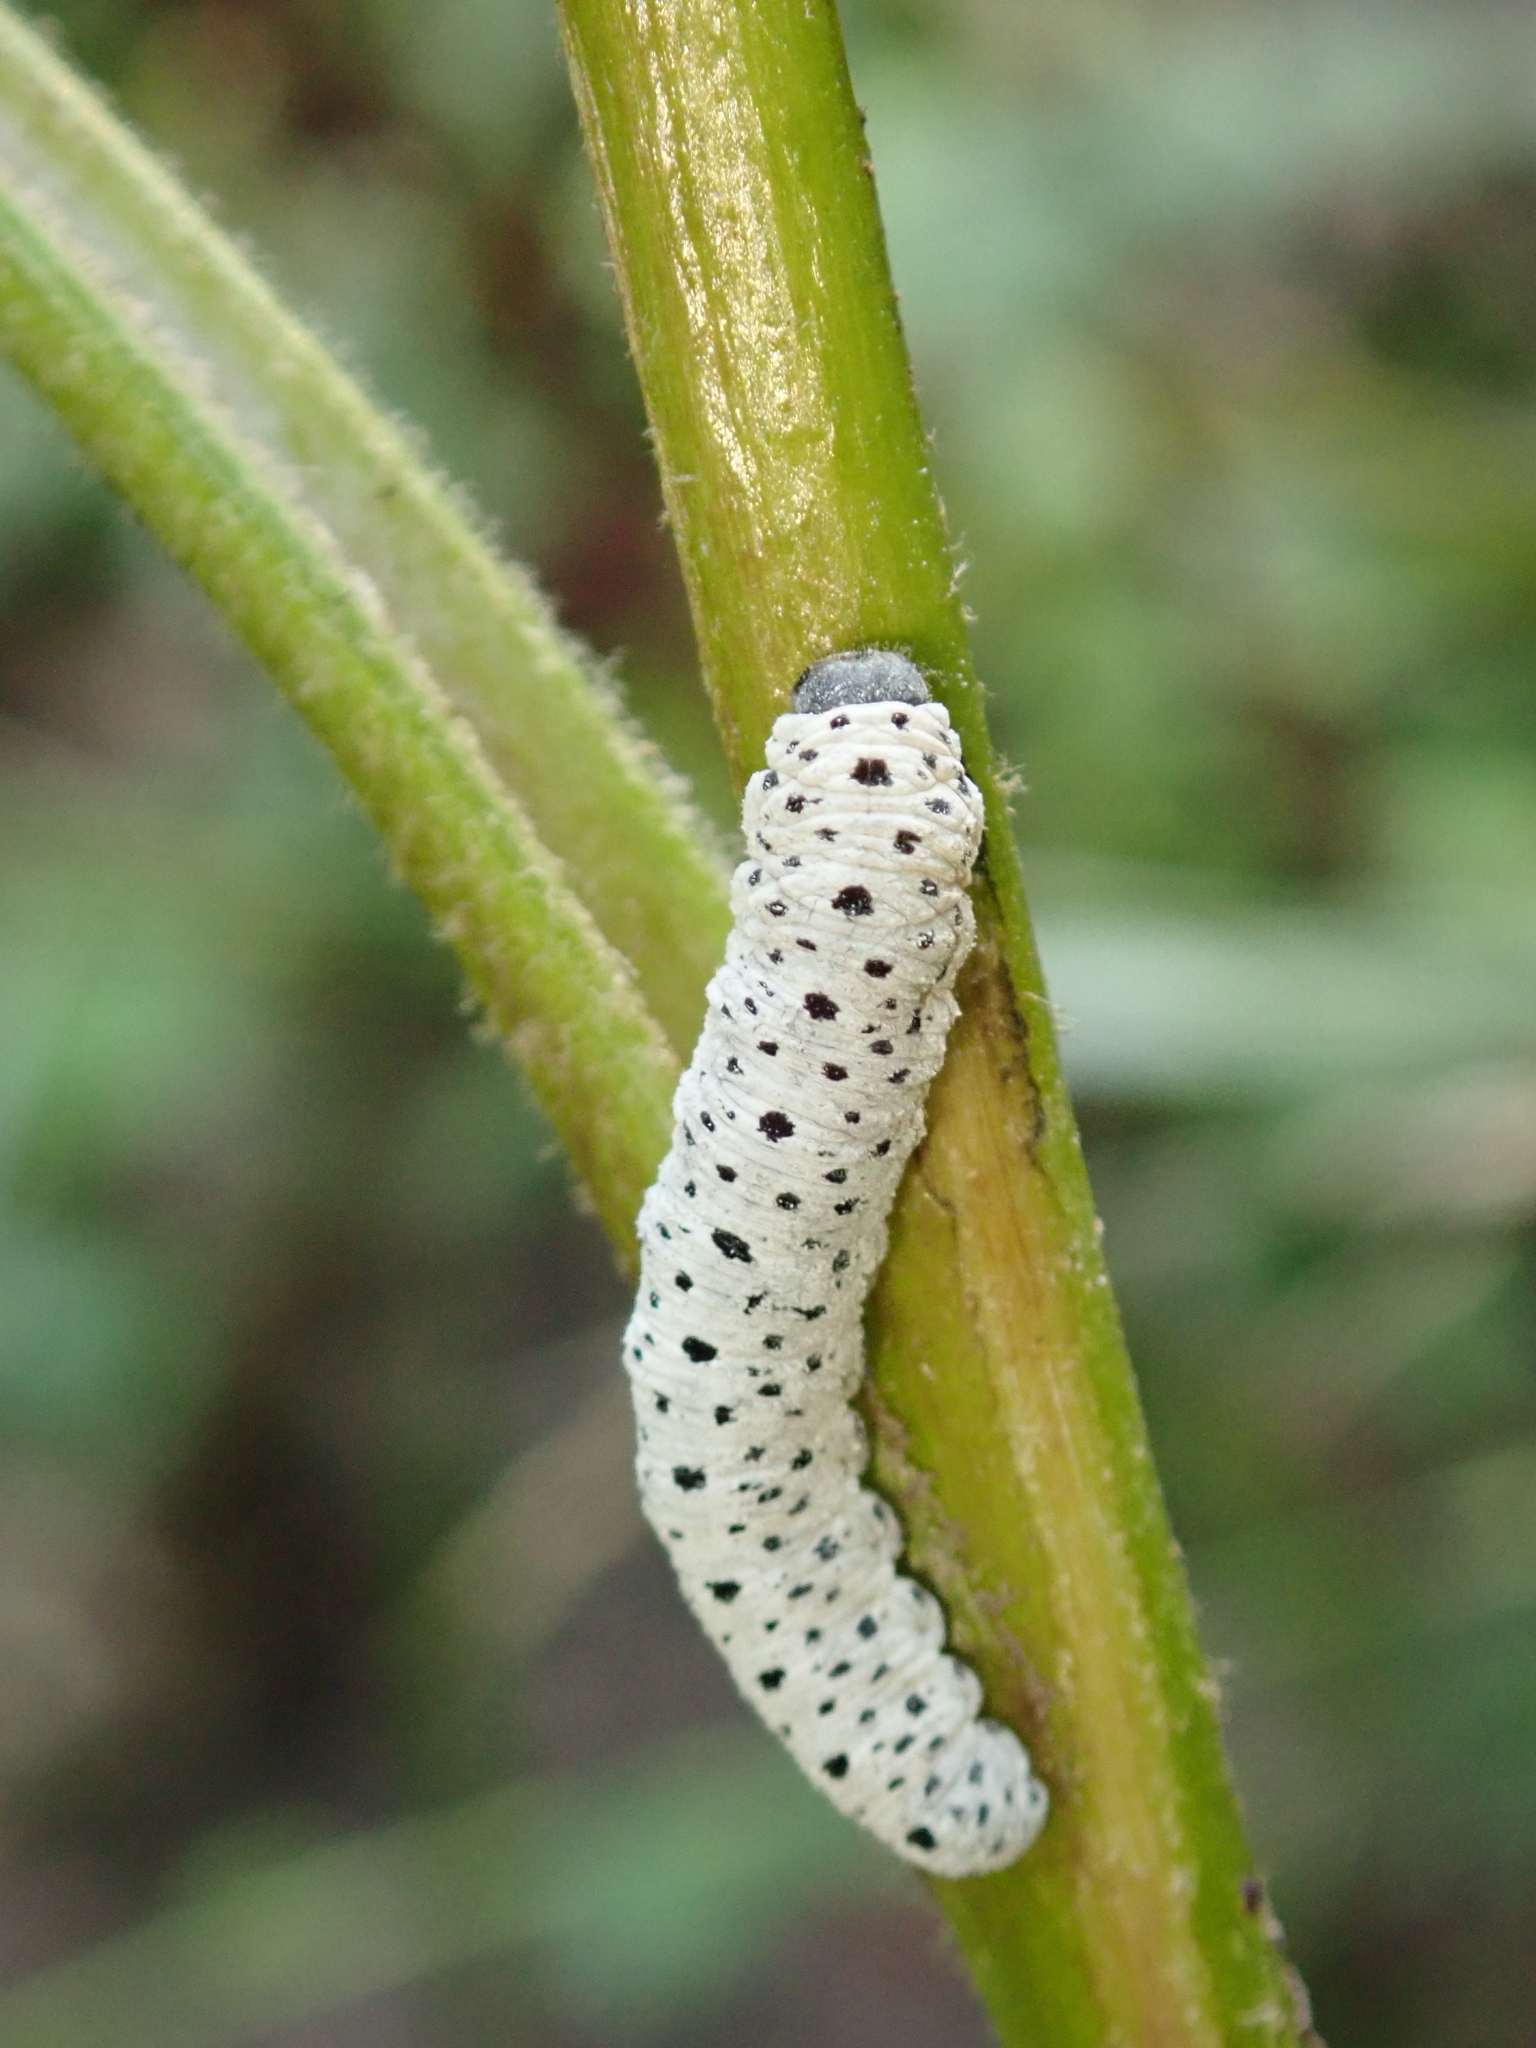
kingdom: Animalia
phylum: Arthropoda
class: Insecta
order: Hymenoptera
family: Tenthredinidae
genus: Tenthredo
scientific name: Tenthredo scrophulariae
